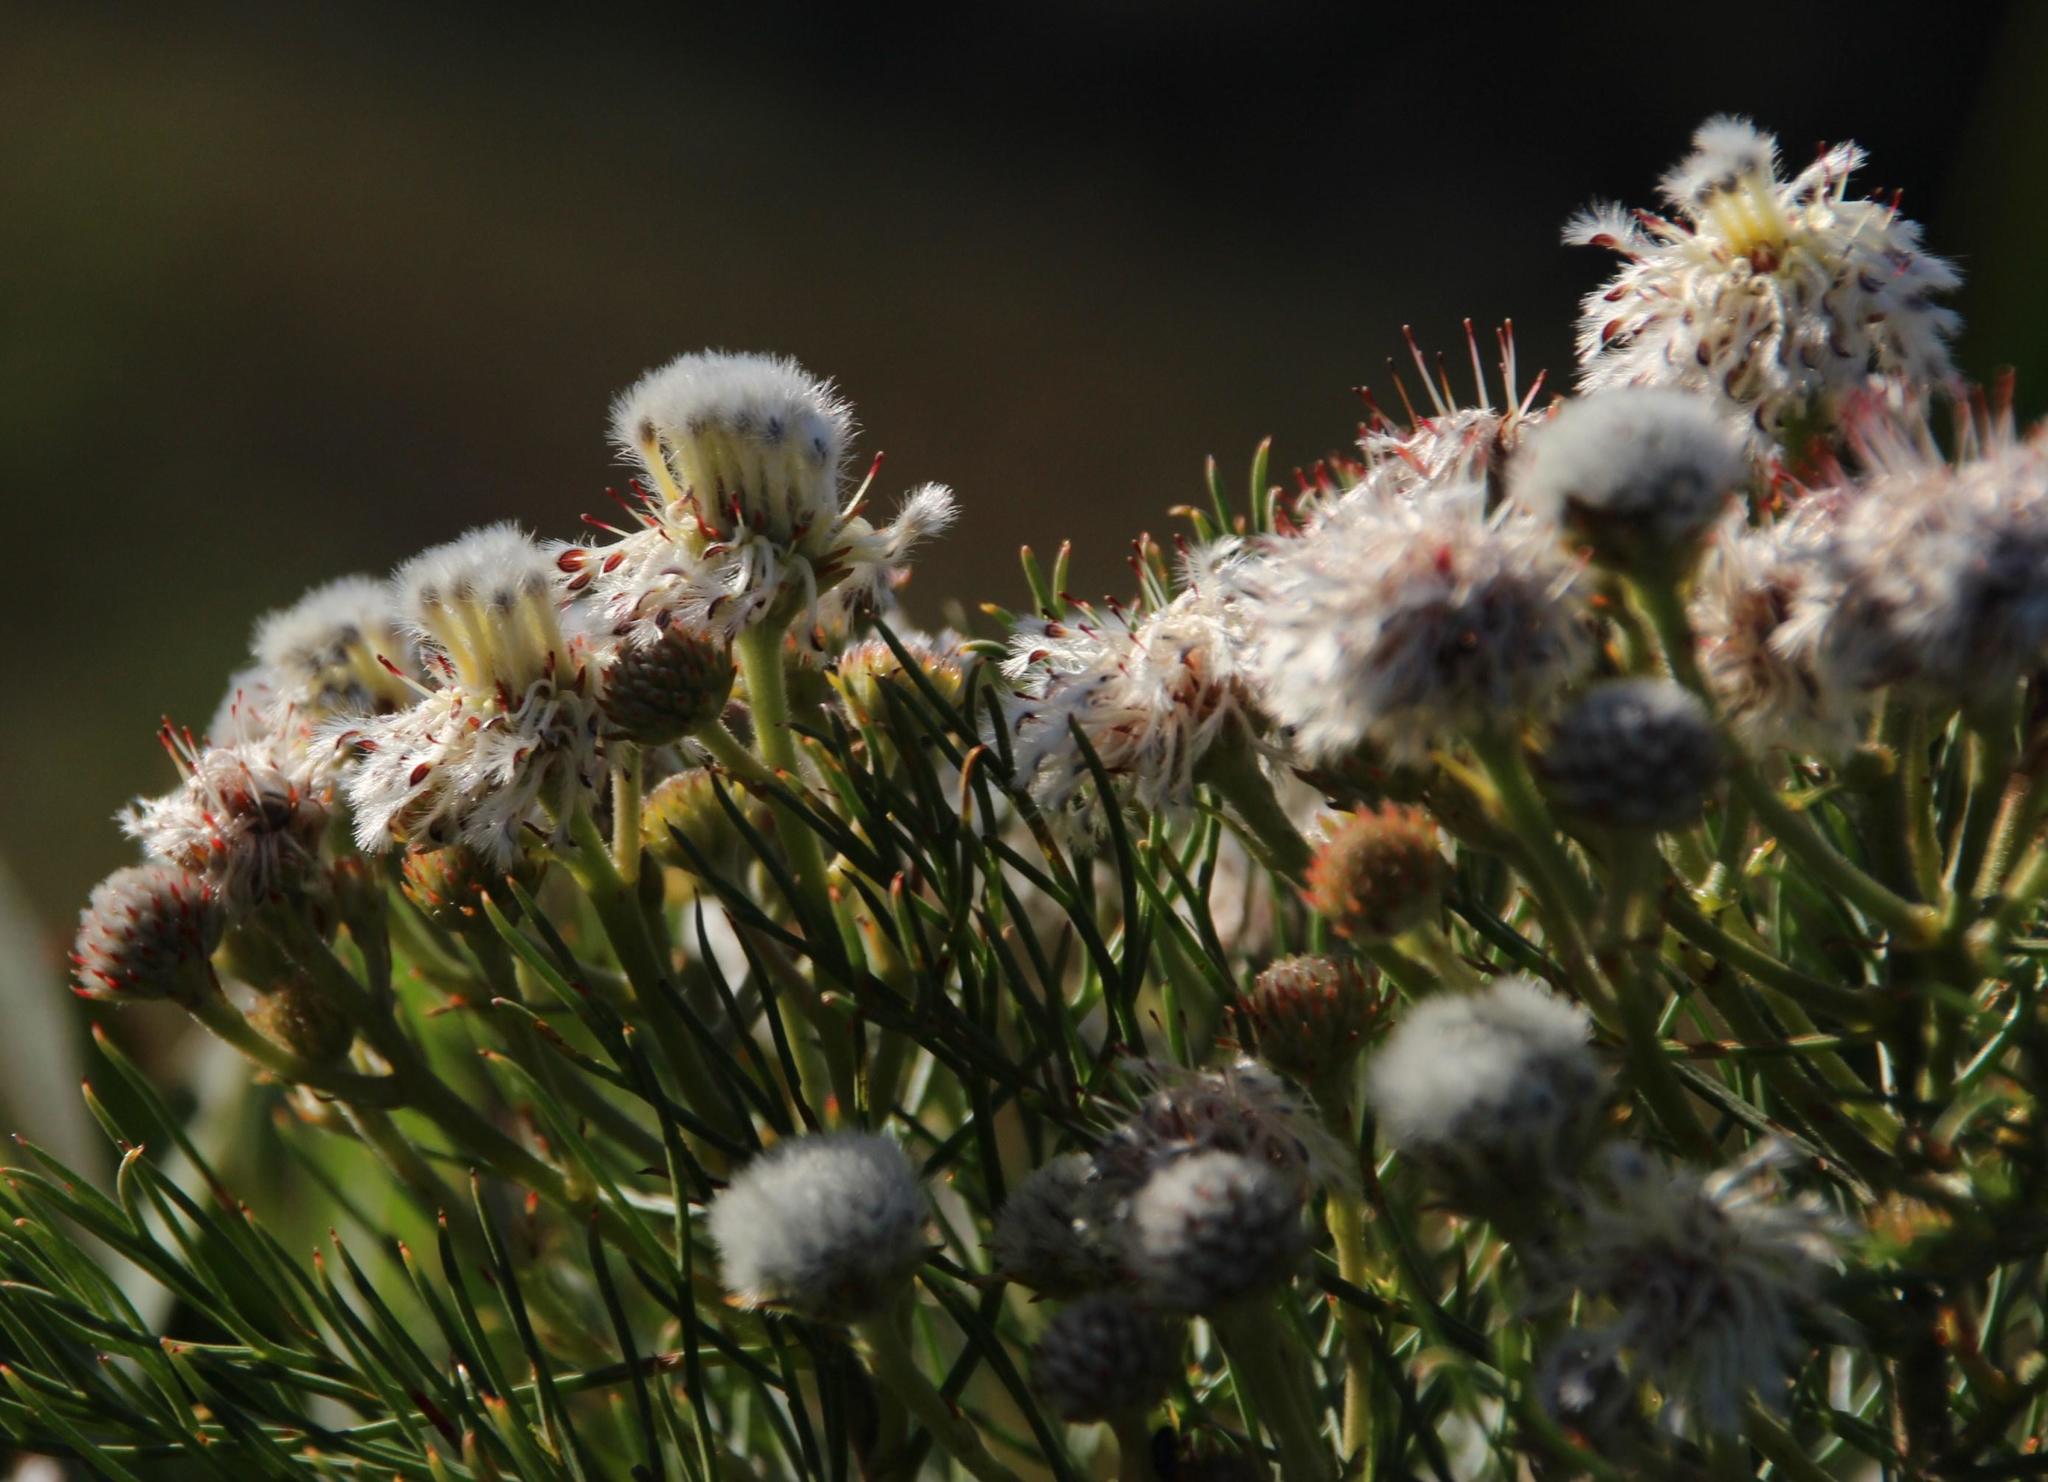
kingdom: Plantae
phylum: Tracheophyta
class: Magnoliopsida
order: Proteales
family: Proteaceae
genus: Serruria
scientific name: Serruria kraussii
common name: Snowball spiderhead
